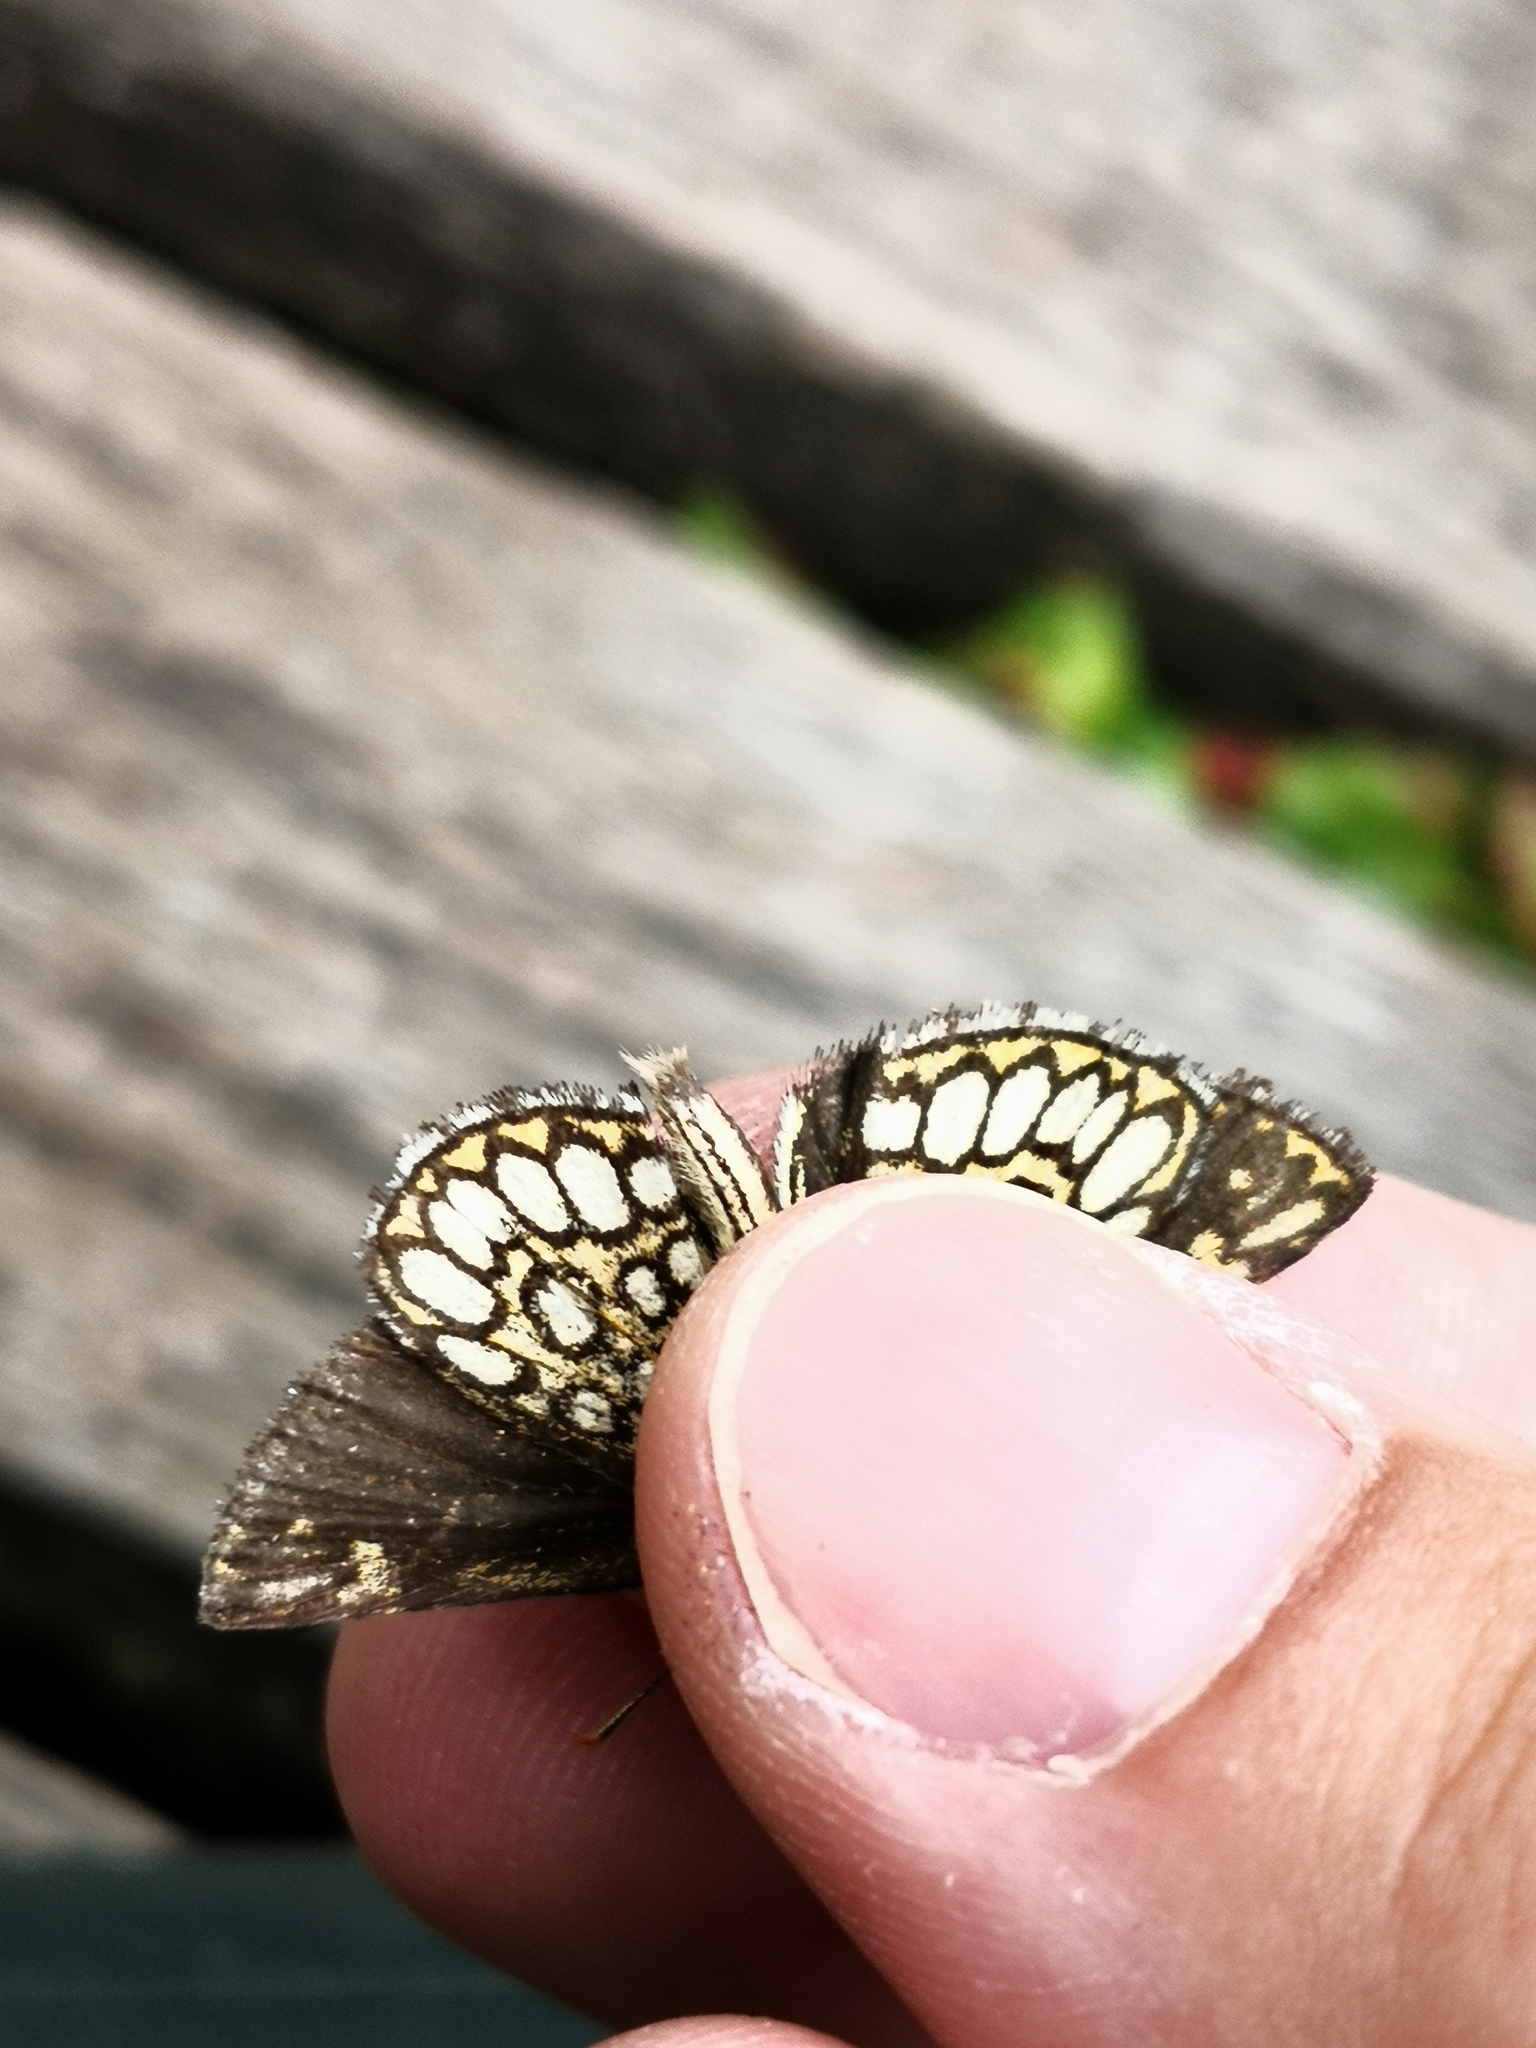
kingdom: Animalia
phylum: Arthropoda
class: Insecta
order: Lepidoptera
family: Hesperiidae
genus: Heteropterus
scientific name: Heteropterus morpheus
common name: Large chequered skipper
